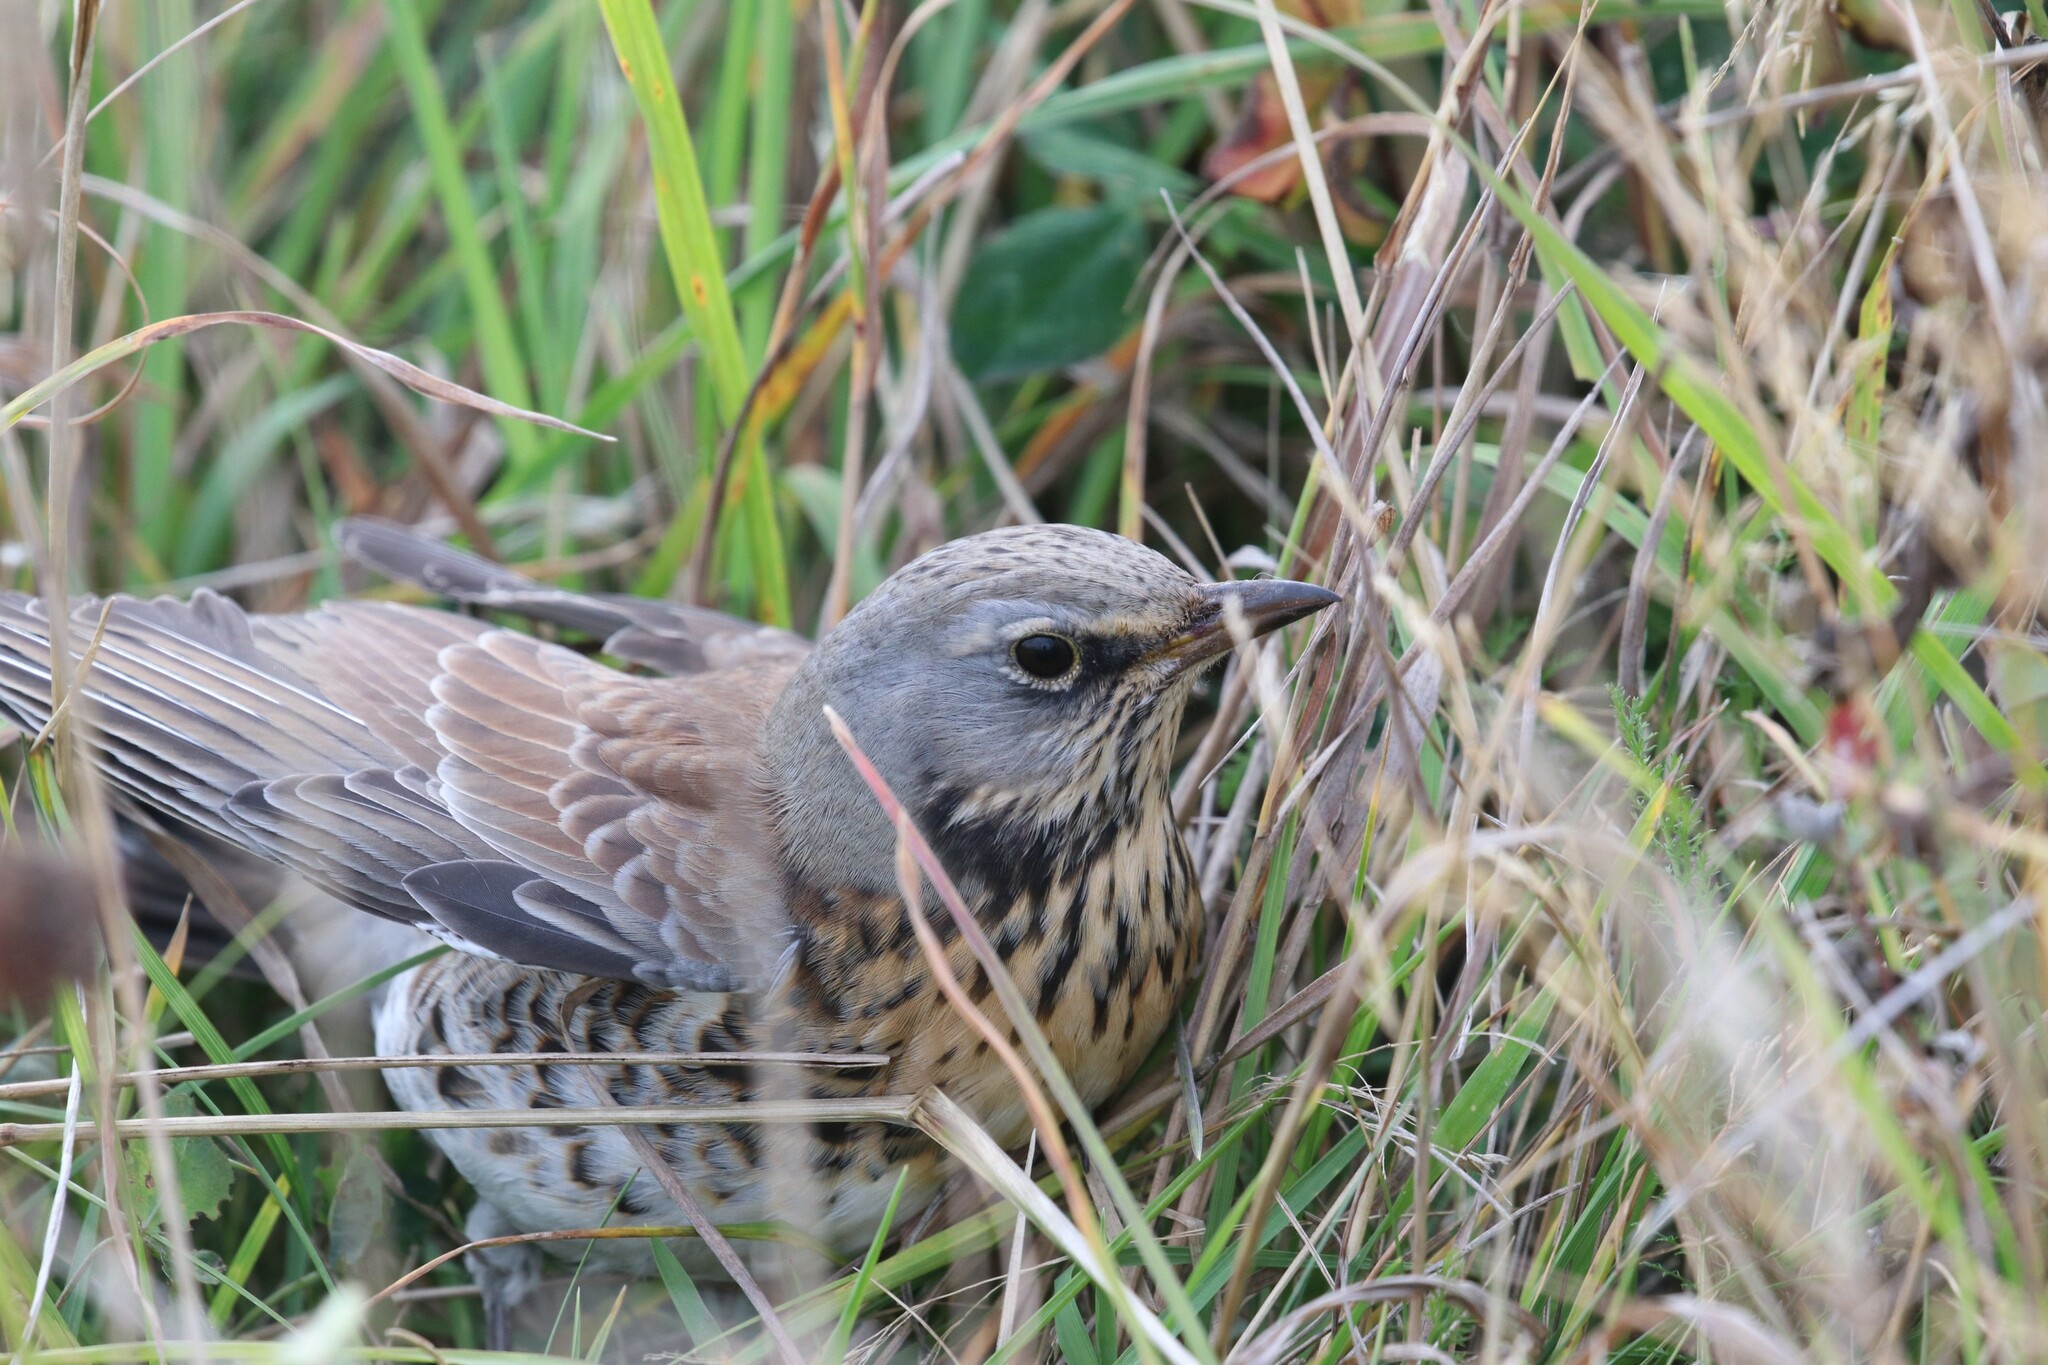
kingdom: Animalia
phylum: Chordata
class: Aves
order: Passeriformes
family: Turdidae
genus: Turdus
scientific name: Turdus pilaris
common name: Fieldfare
